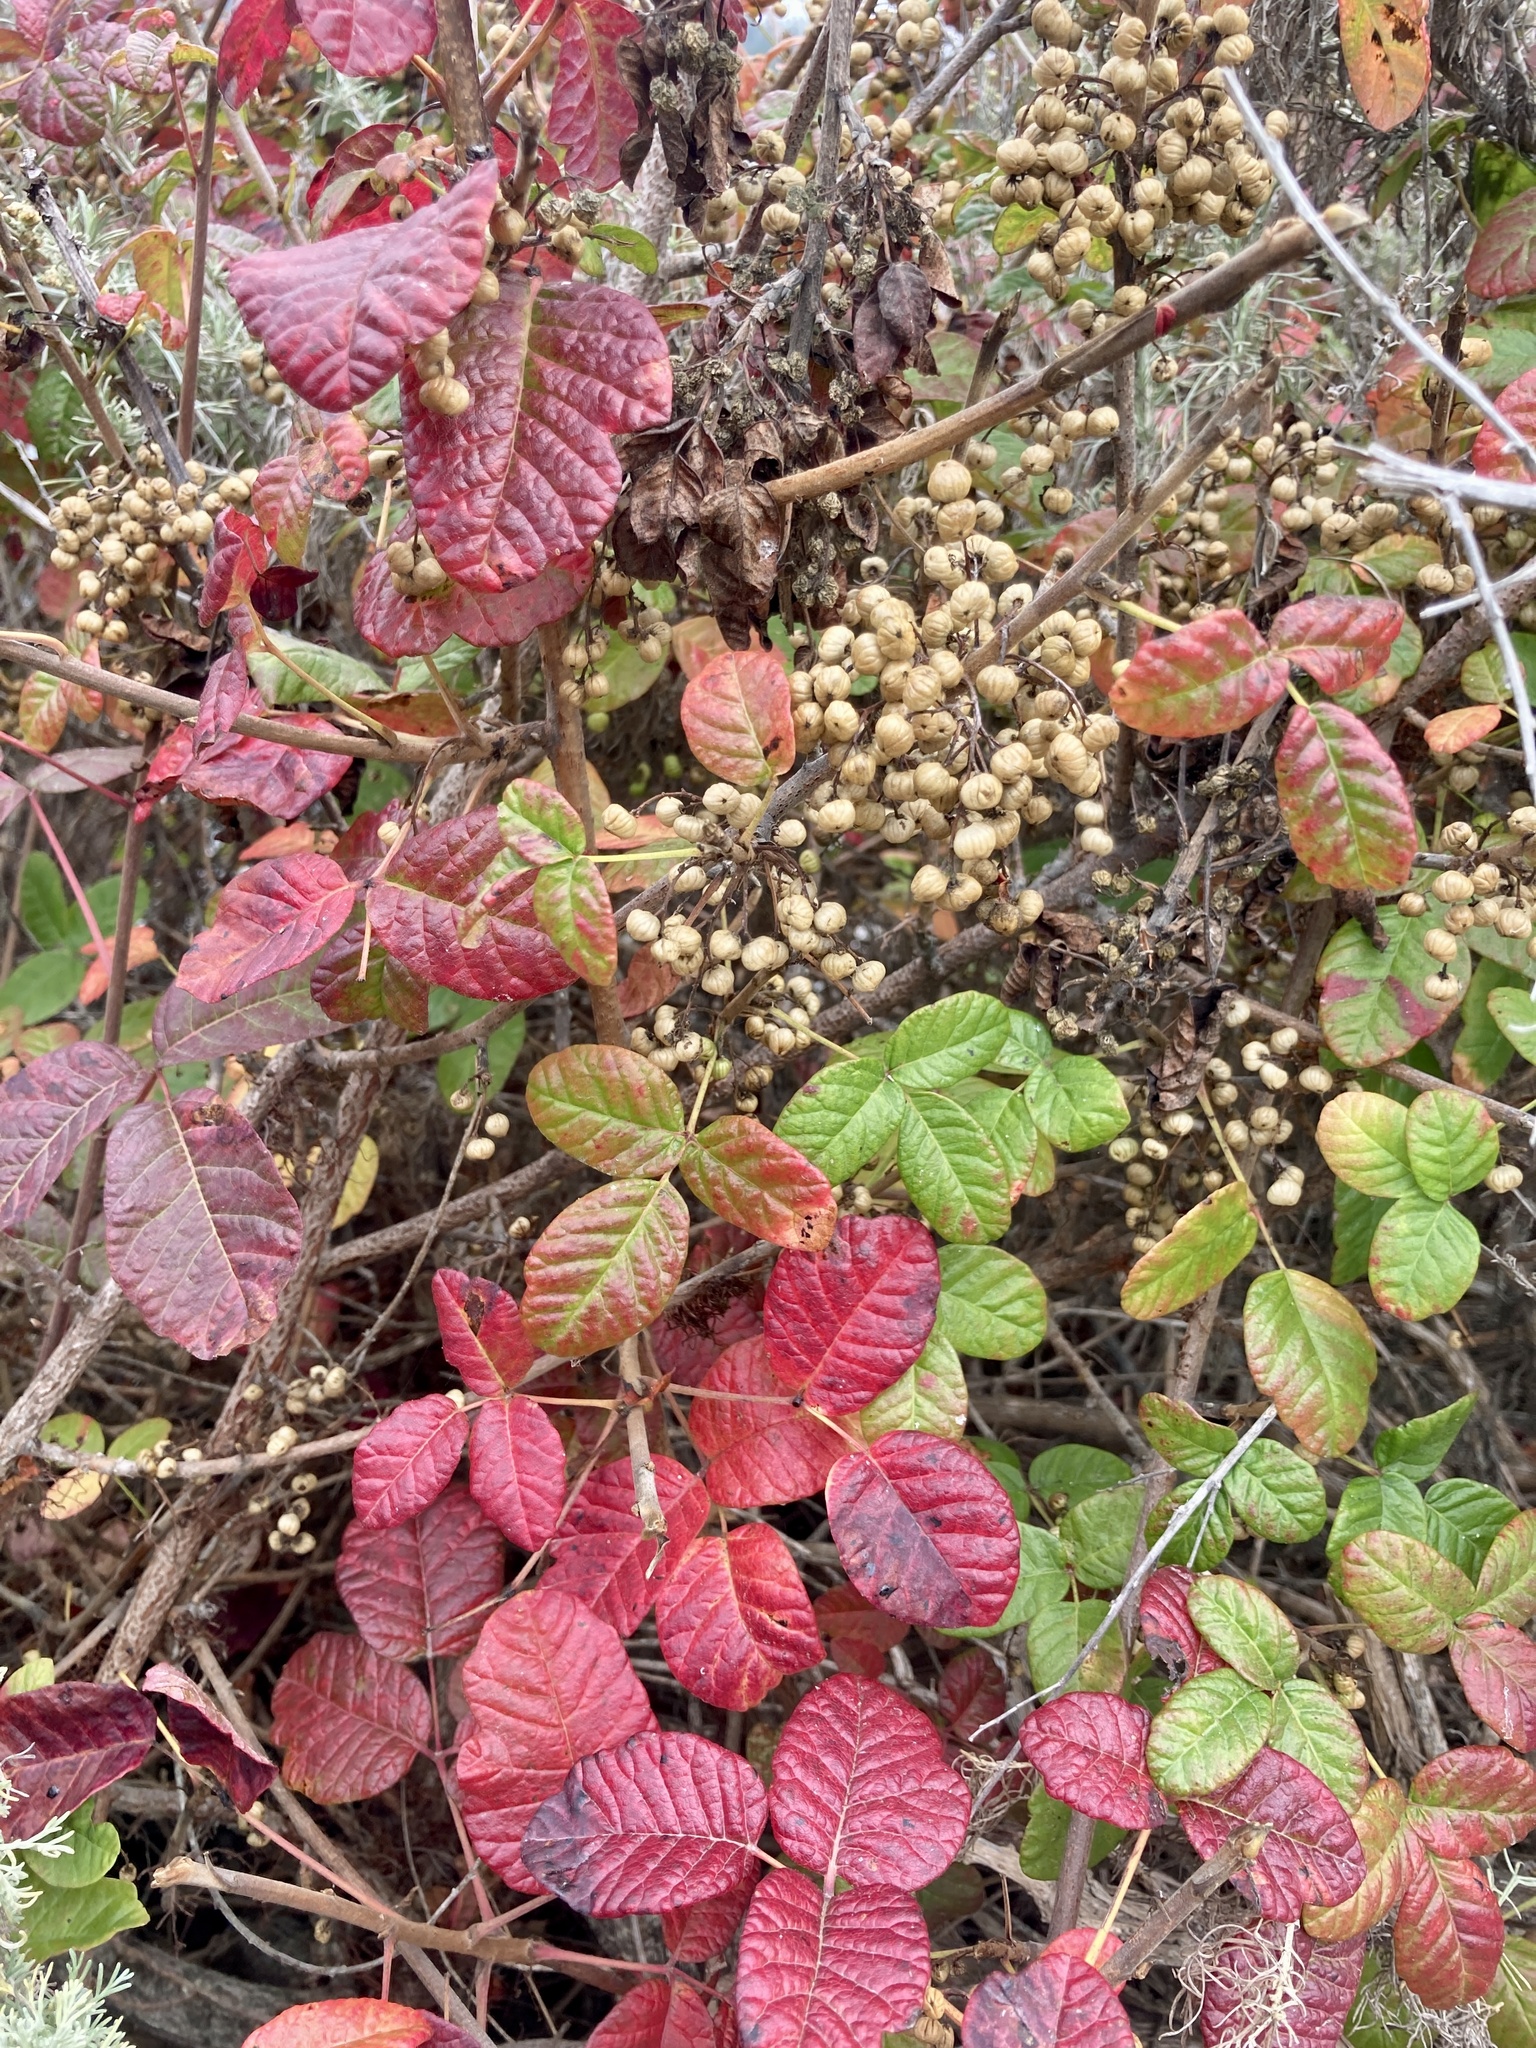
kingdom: Plantae
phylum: Tracheophyta
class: Magnoliopsida
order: Sapindales
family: Anacardiaceae
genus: Toxicodendron
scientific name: Toxicodendron diversilobum
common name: Pacific poison-oak
